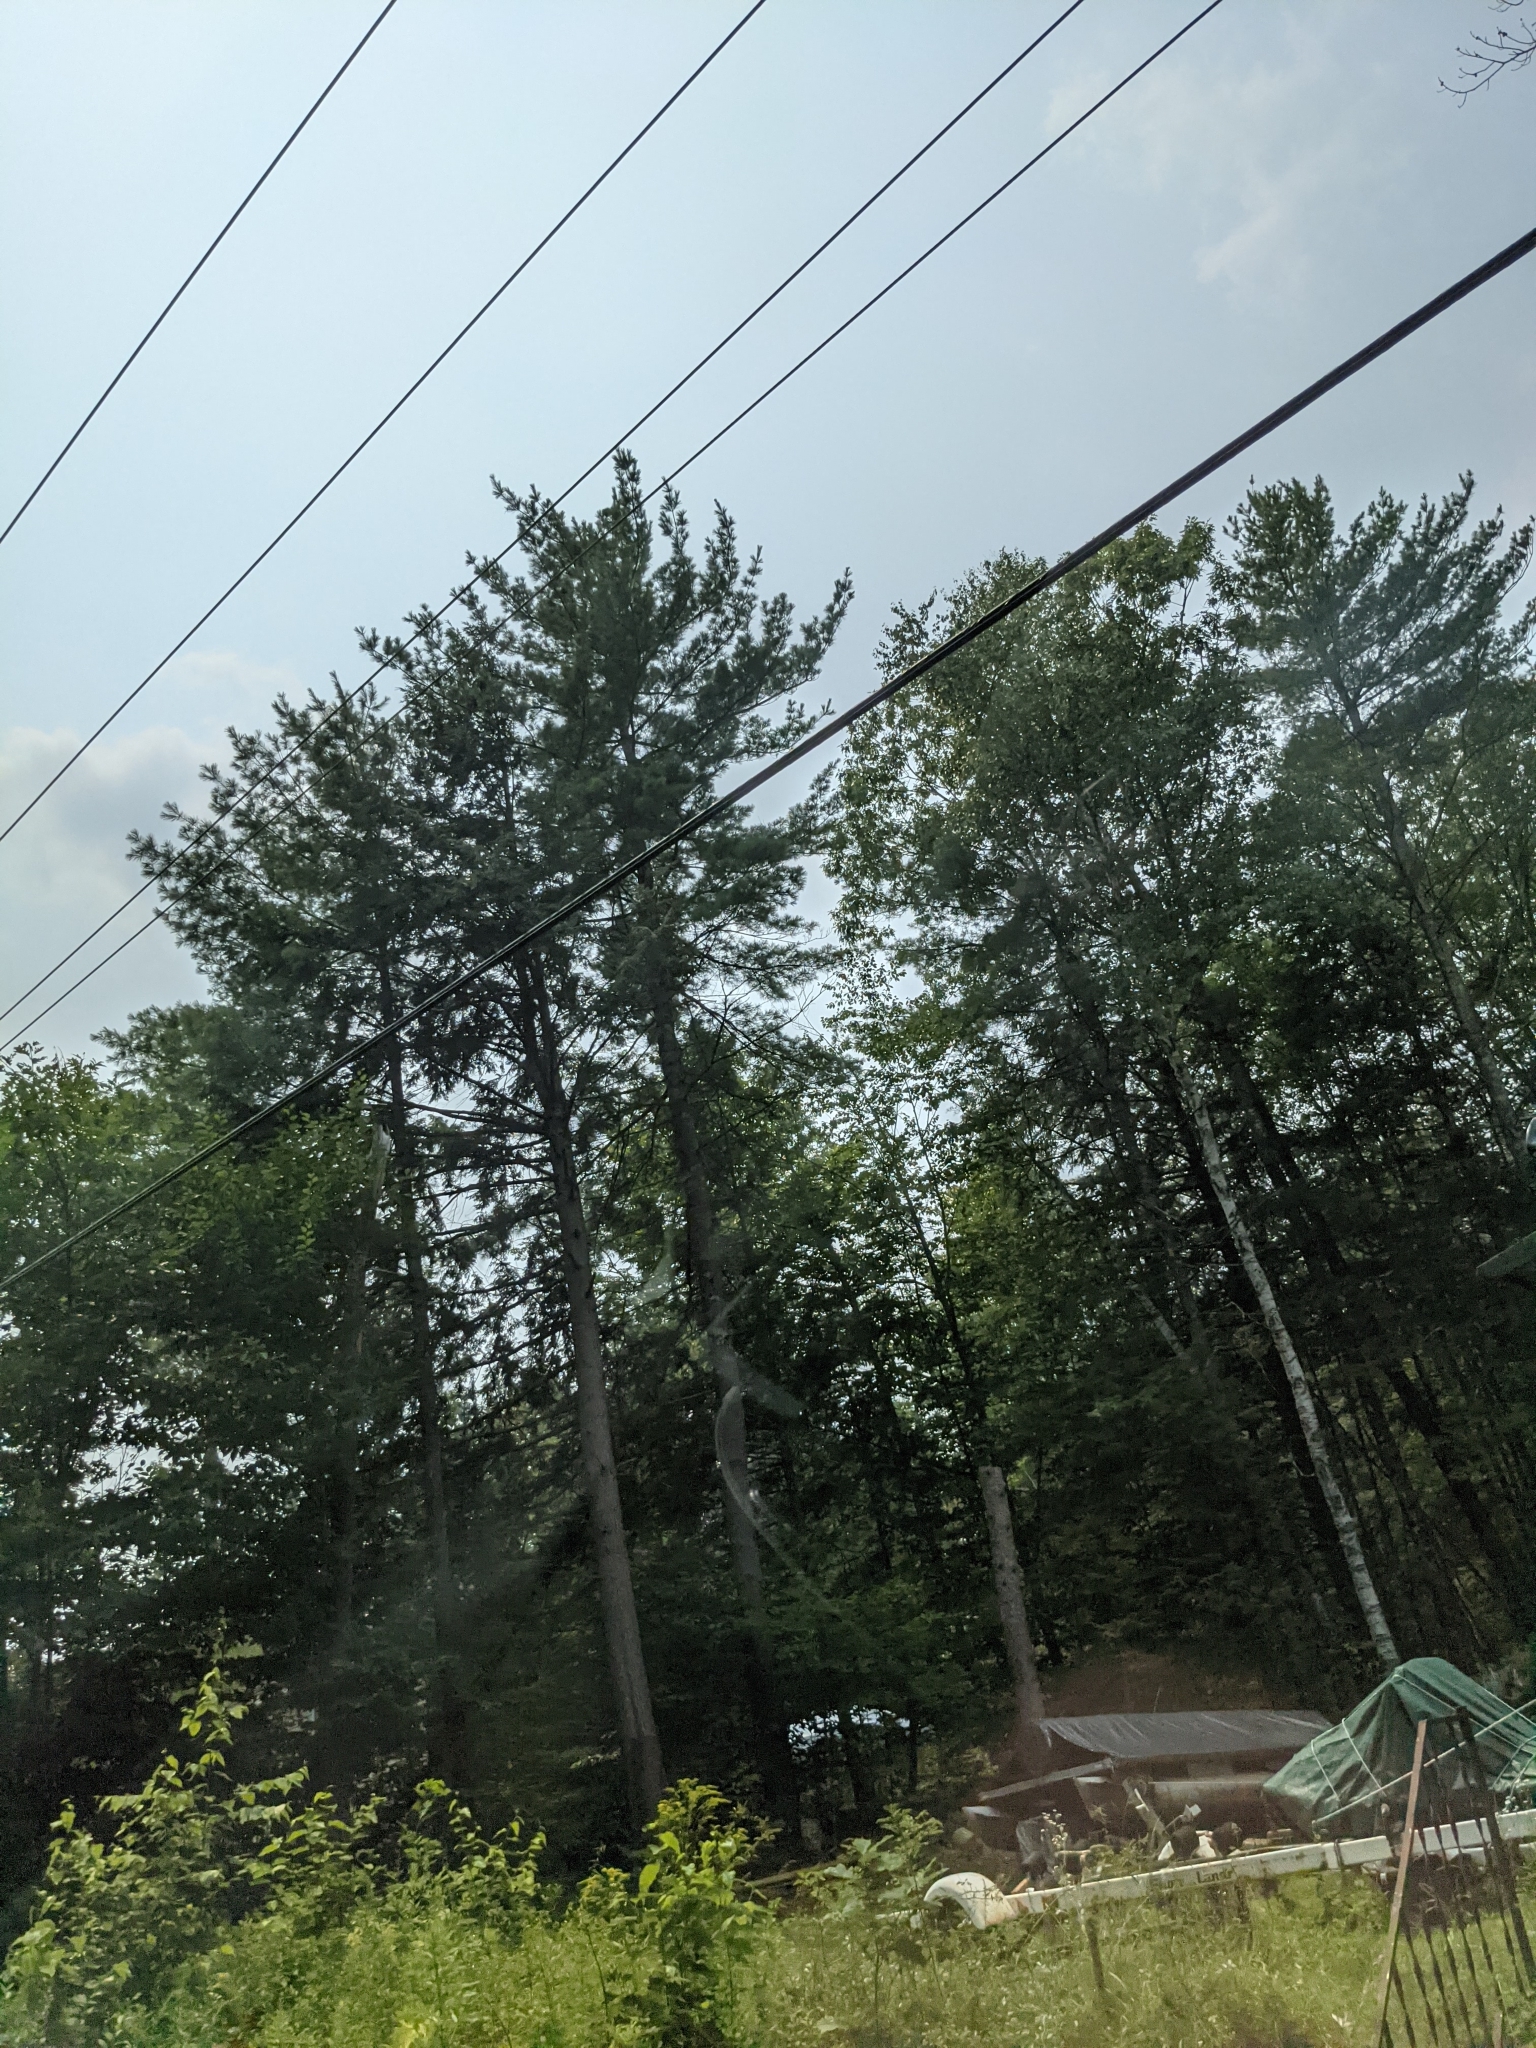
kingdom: Plantae
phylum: Tracheophyta
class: Pinopsida
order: Pinales
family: Pinaceae
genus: Pinus
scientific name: Pinus strobus
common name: Weymouth pine
